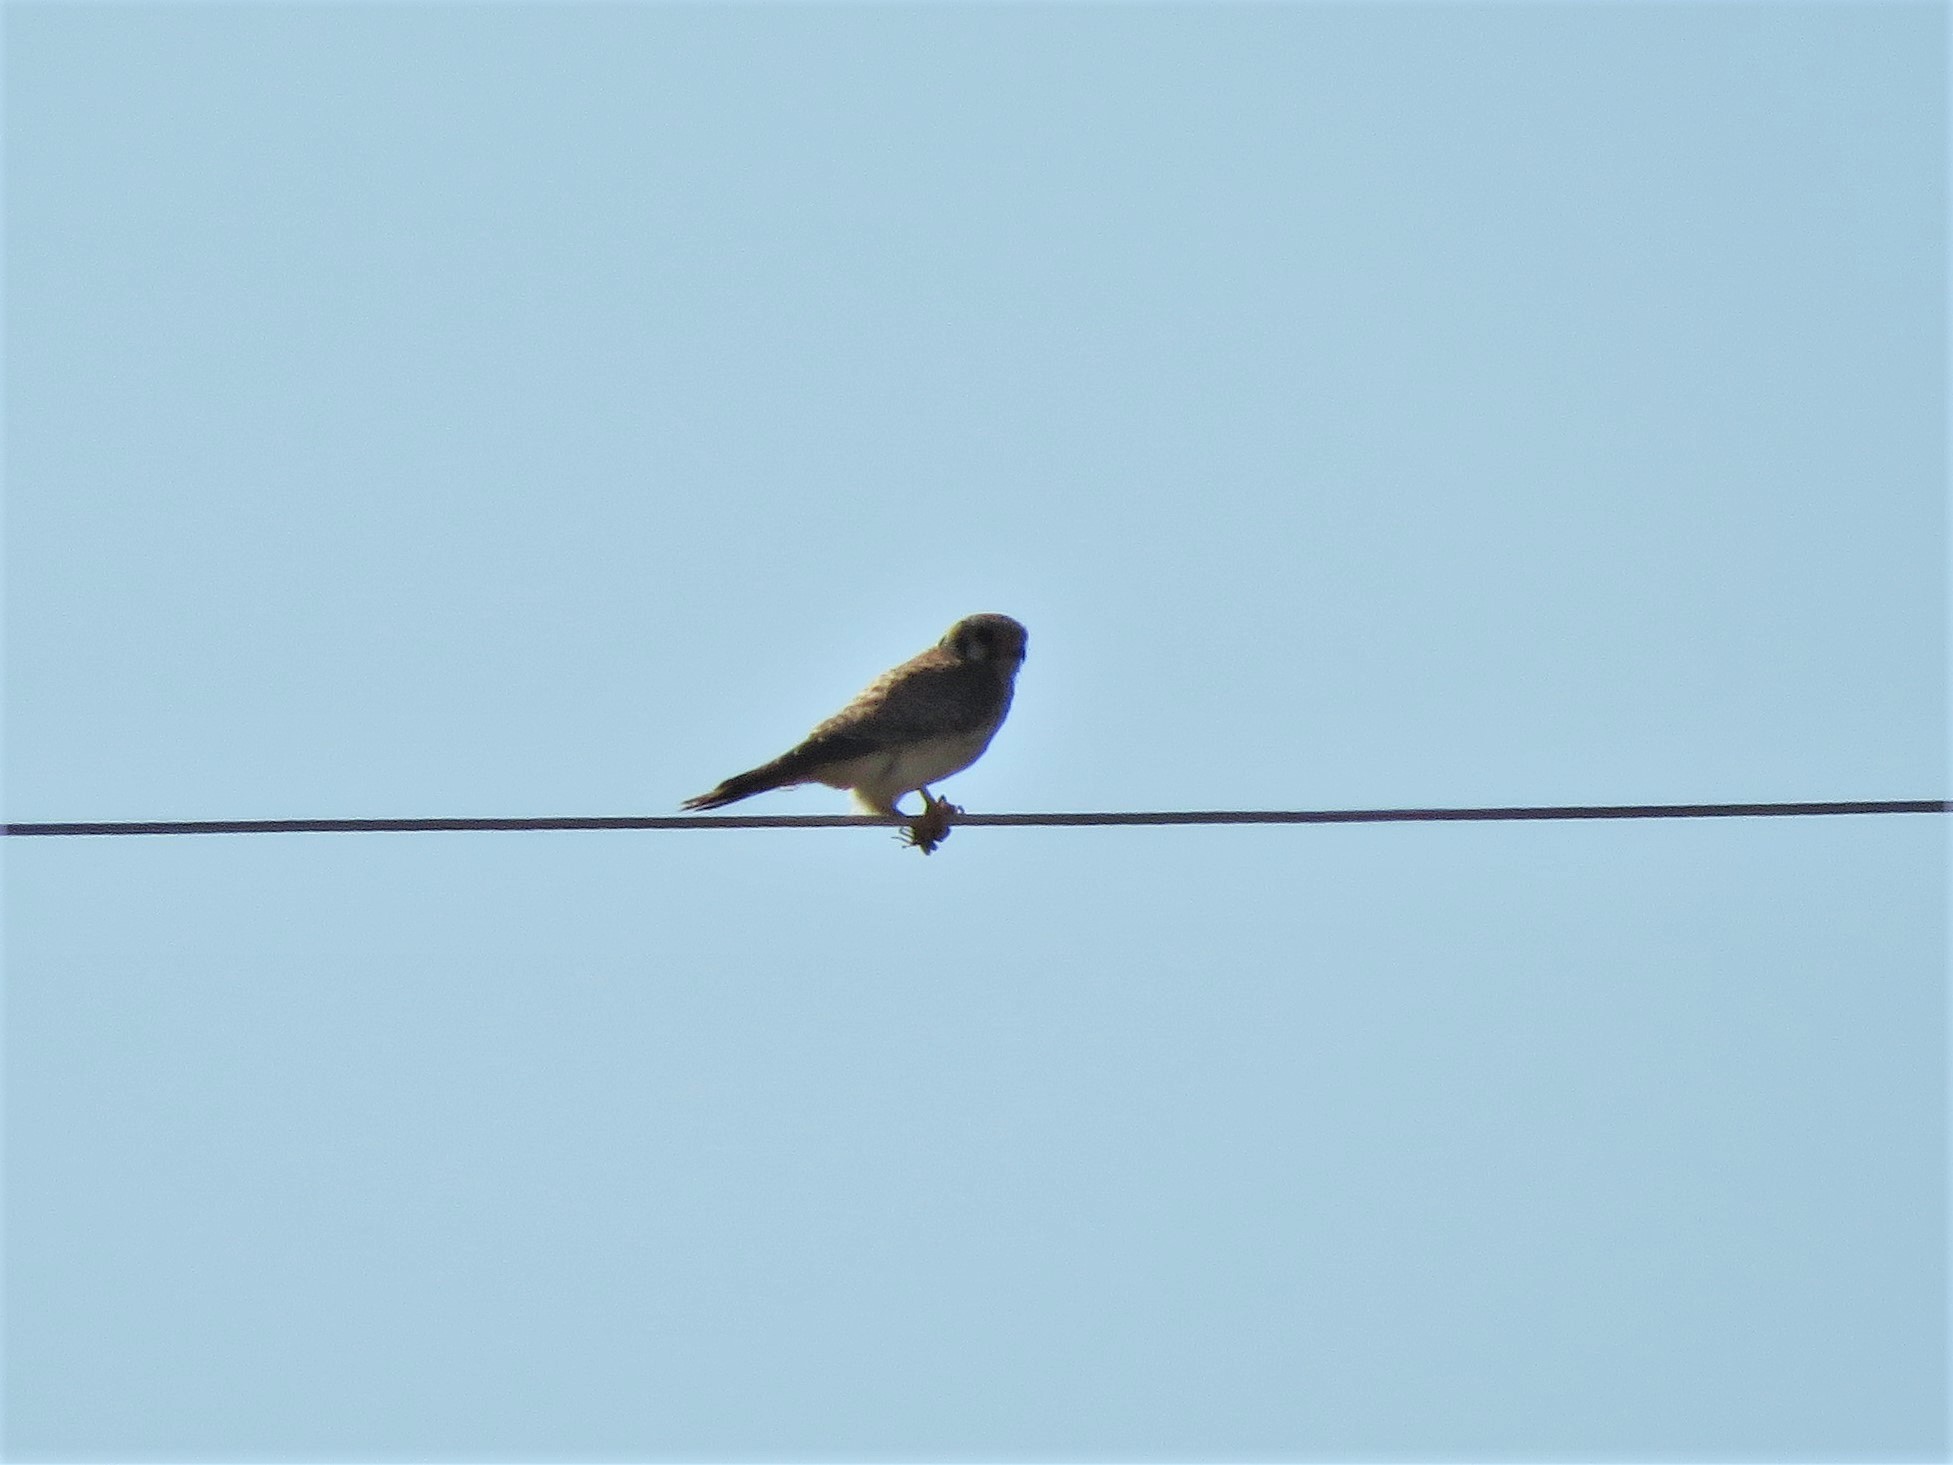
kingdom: Animalia
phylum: Chordata
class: Aves
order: Falconiformes
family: Falconidae
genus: Falco
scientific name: Falco sparverius
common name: American kestrel
